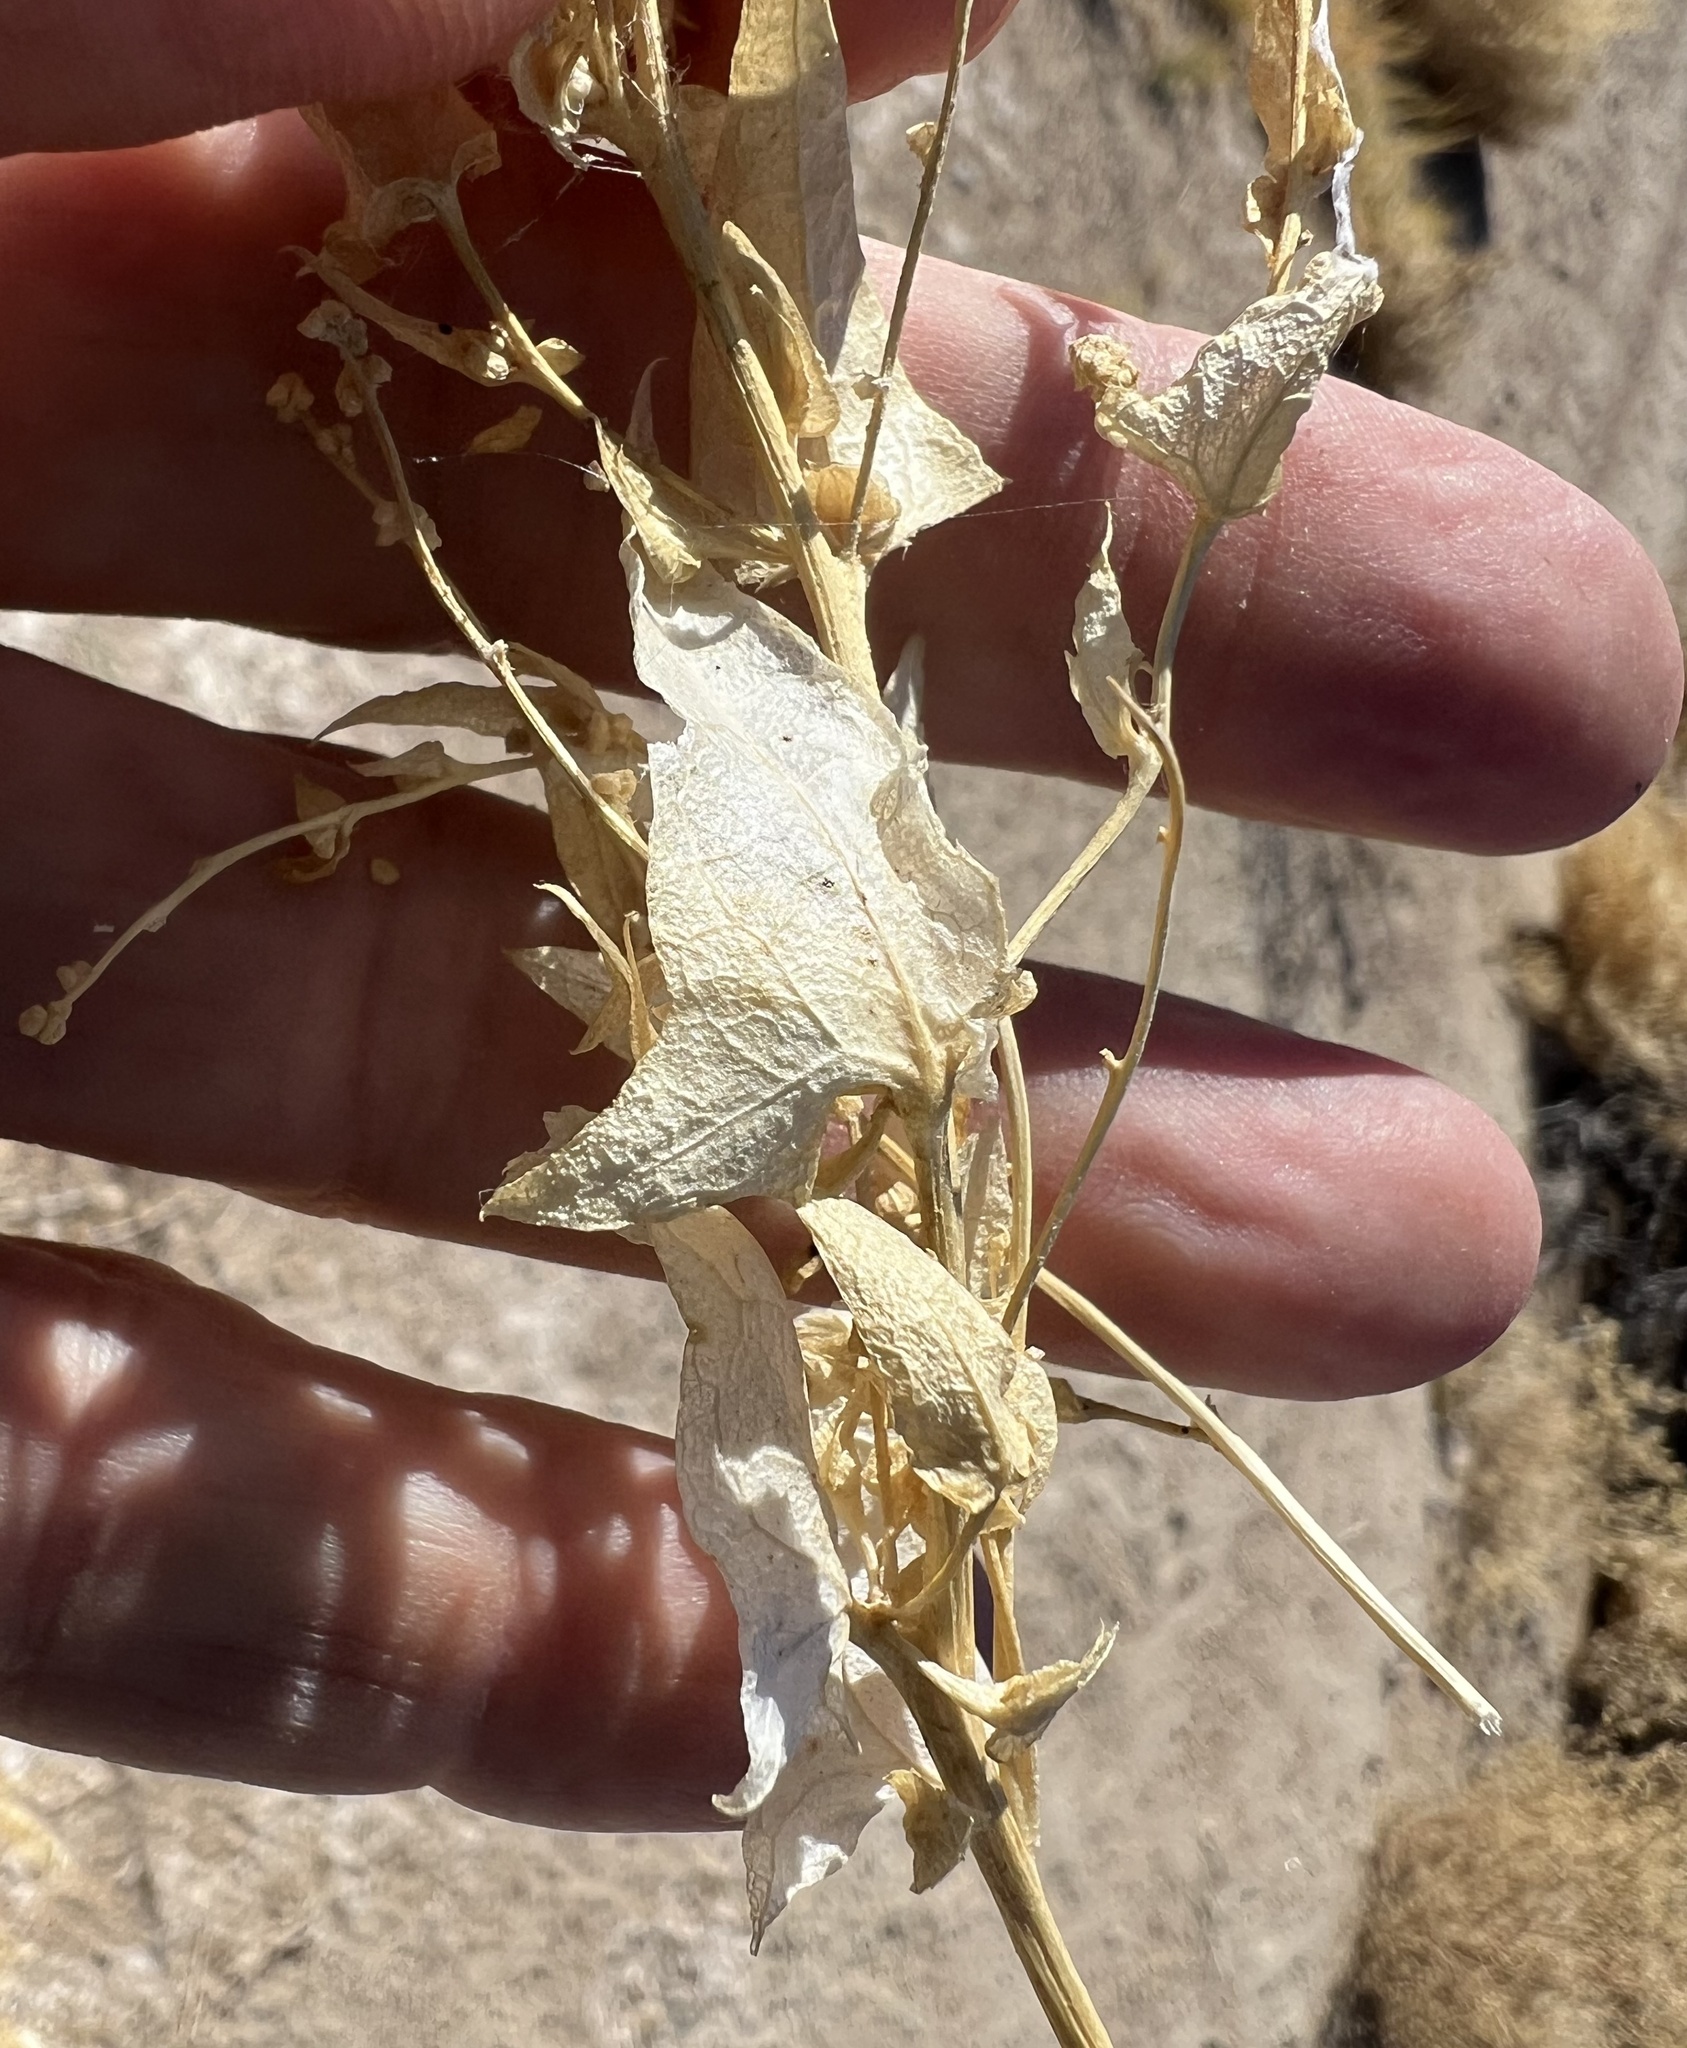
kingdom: Plantae
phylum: Tracheophyta
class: Magnoliopsida
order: Caryophyllales
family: Amaranthaceae
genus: Stutzia
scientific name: Stutzia covillei
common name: Coville's orach
